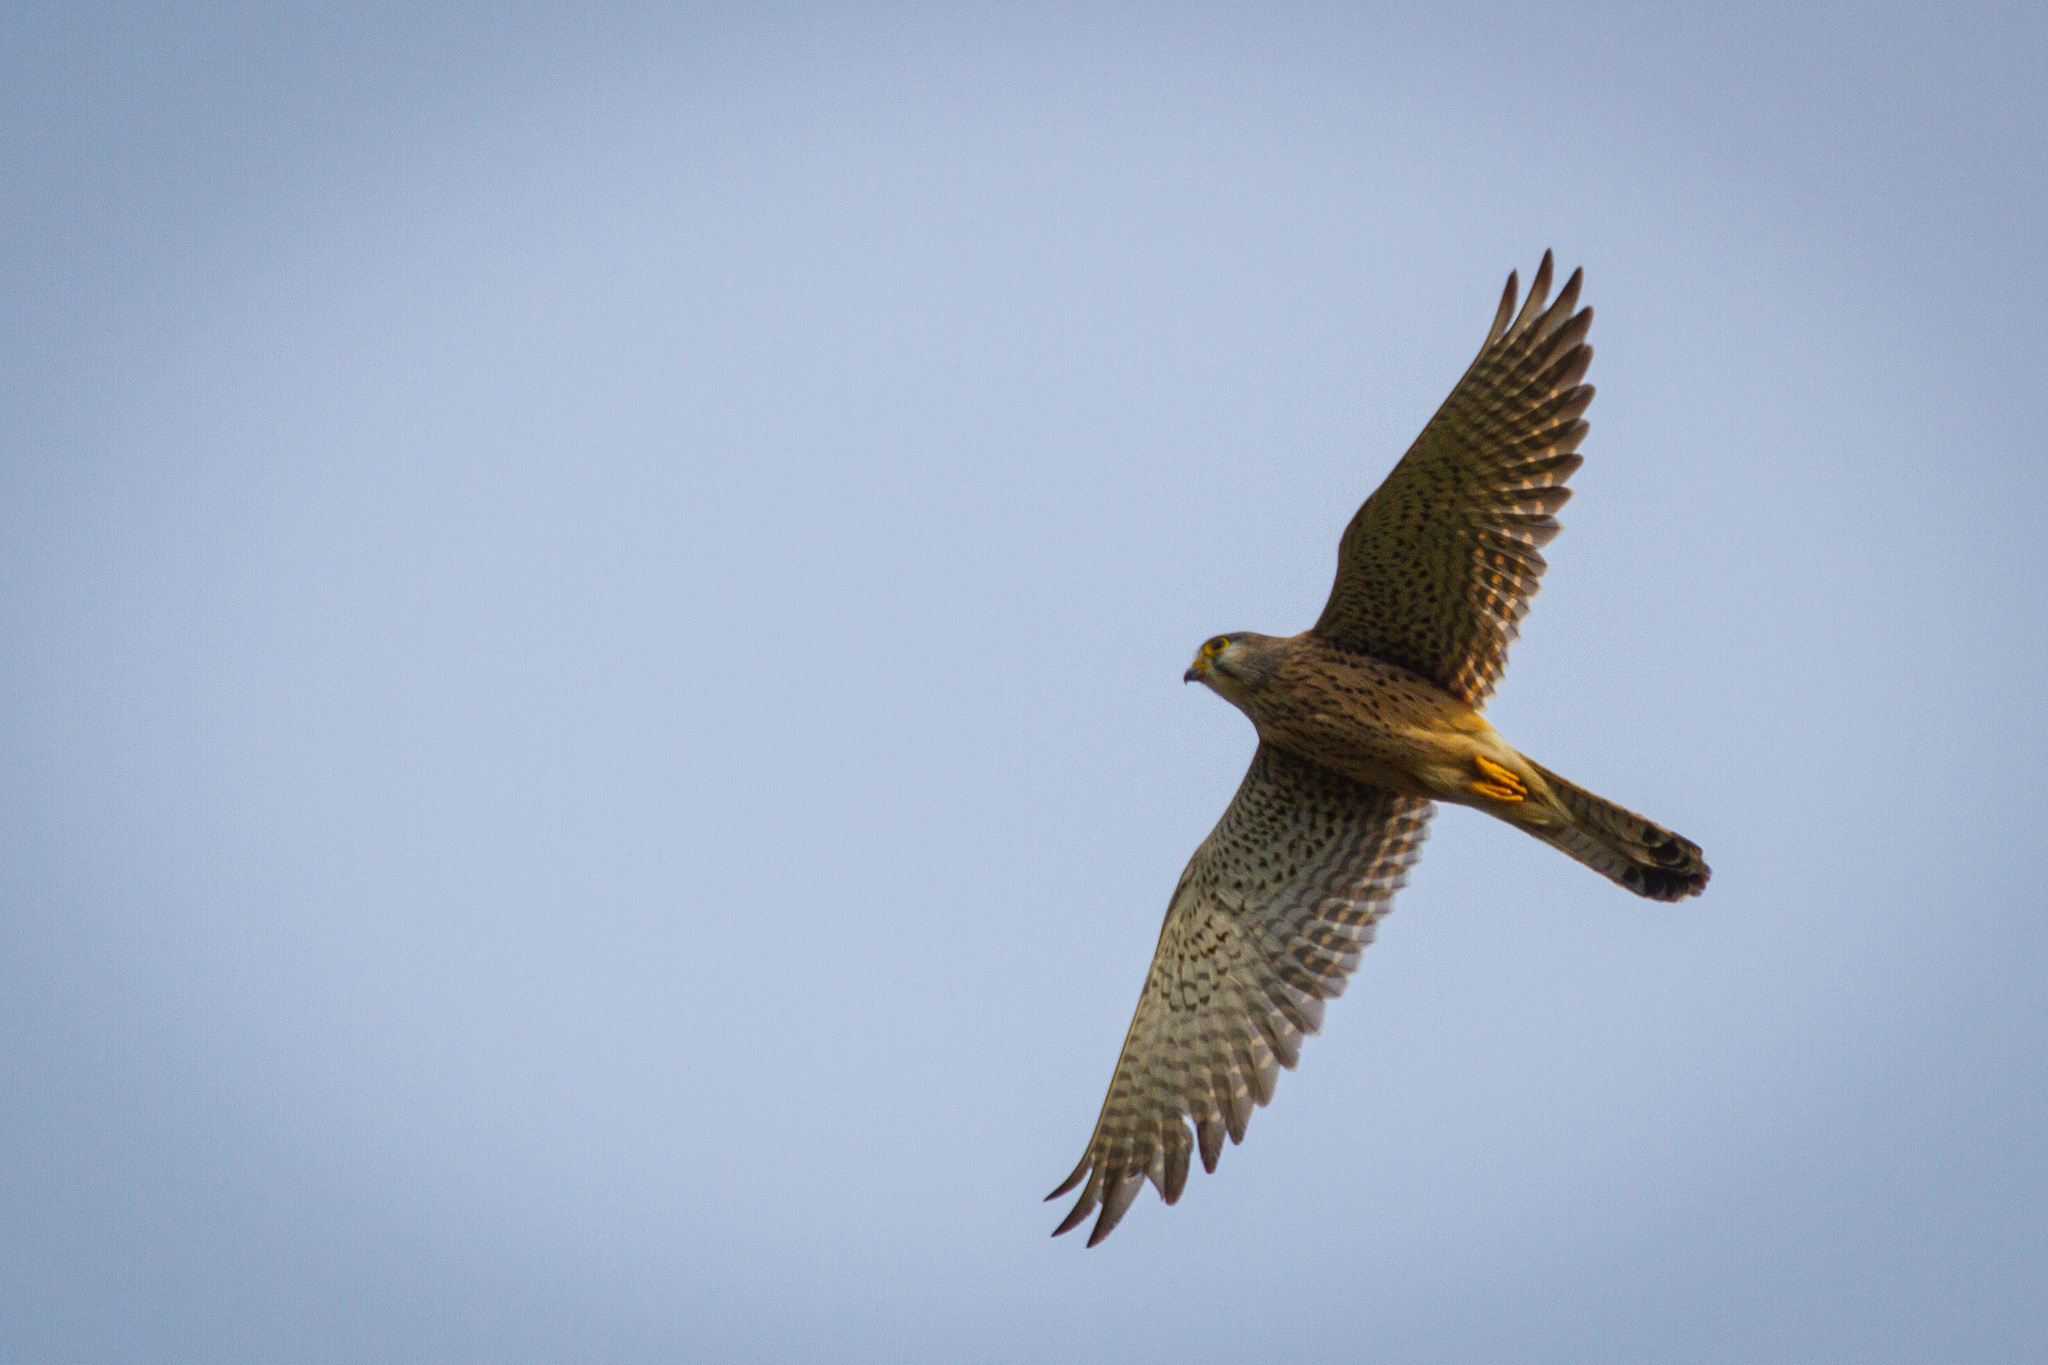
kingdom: Animalia
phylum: Chordata
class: Aves
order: Falconiformes
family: Falconidae
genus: Falco
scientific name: Falco tinnunculus
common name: Common kestrel
